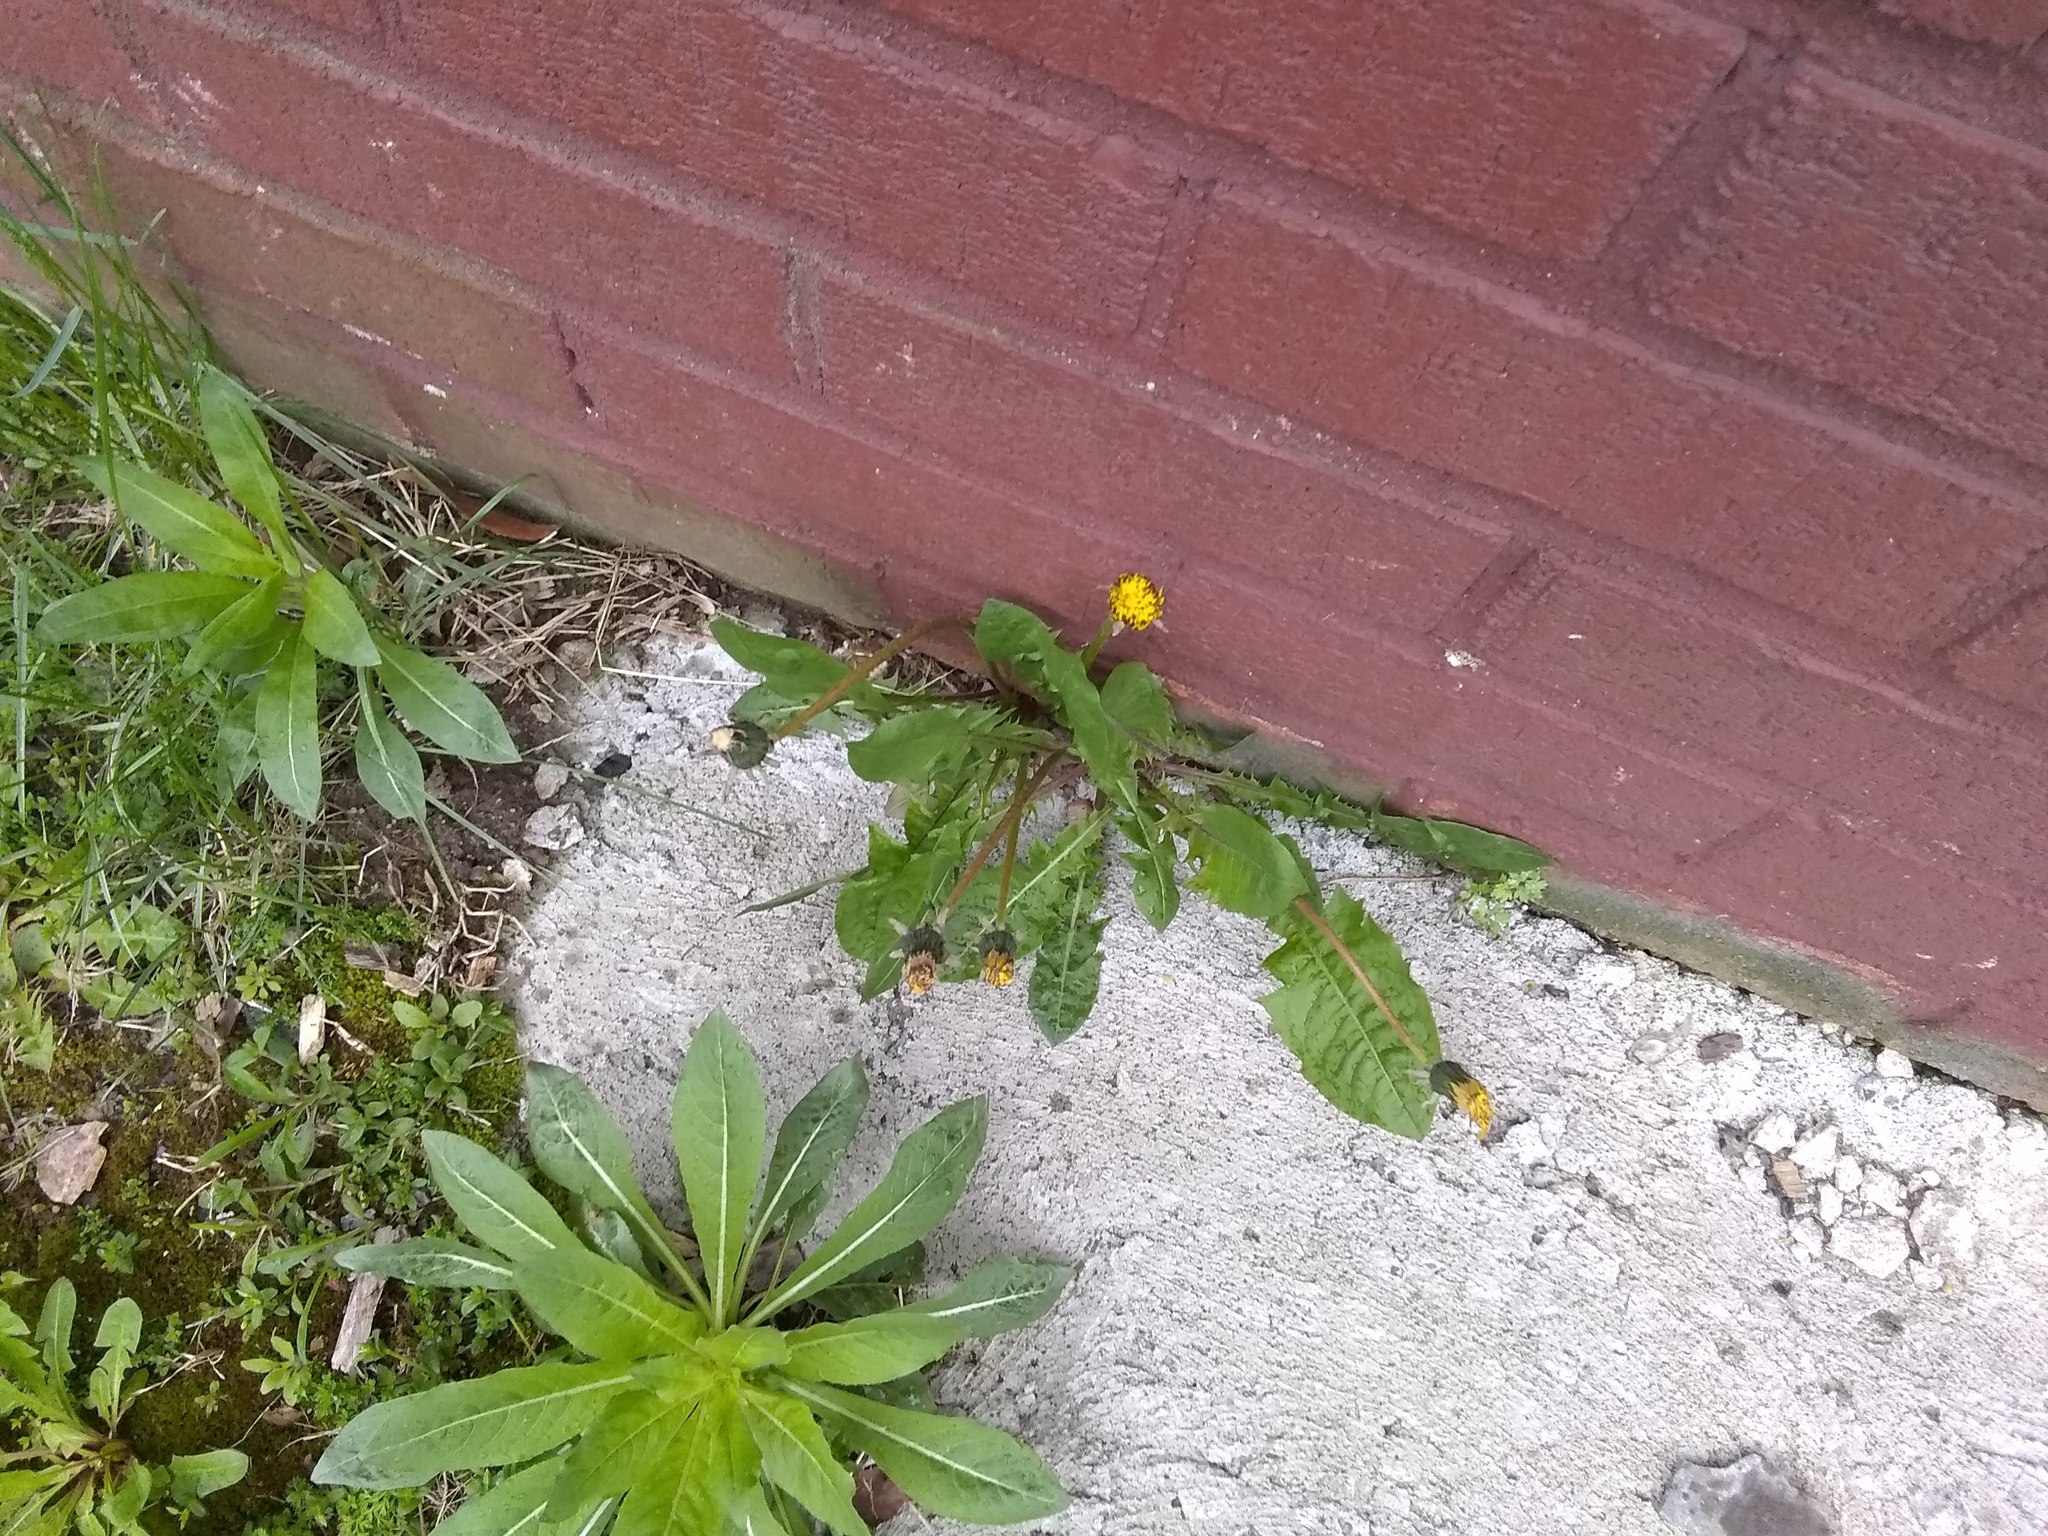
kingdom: Plantae
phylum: Tracheophyta
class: Magnoliopsida
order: Asterales
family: Asteraceae
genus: Taraxacum
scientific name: Taraxacum officinale
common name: Common dandelion
